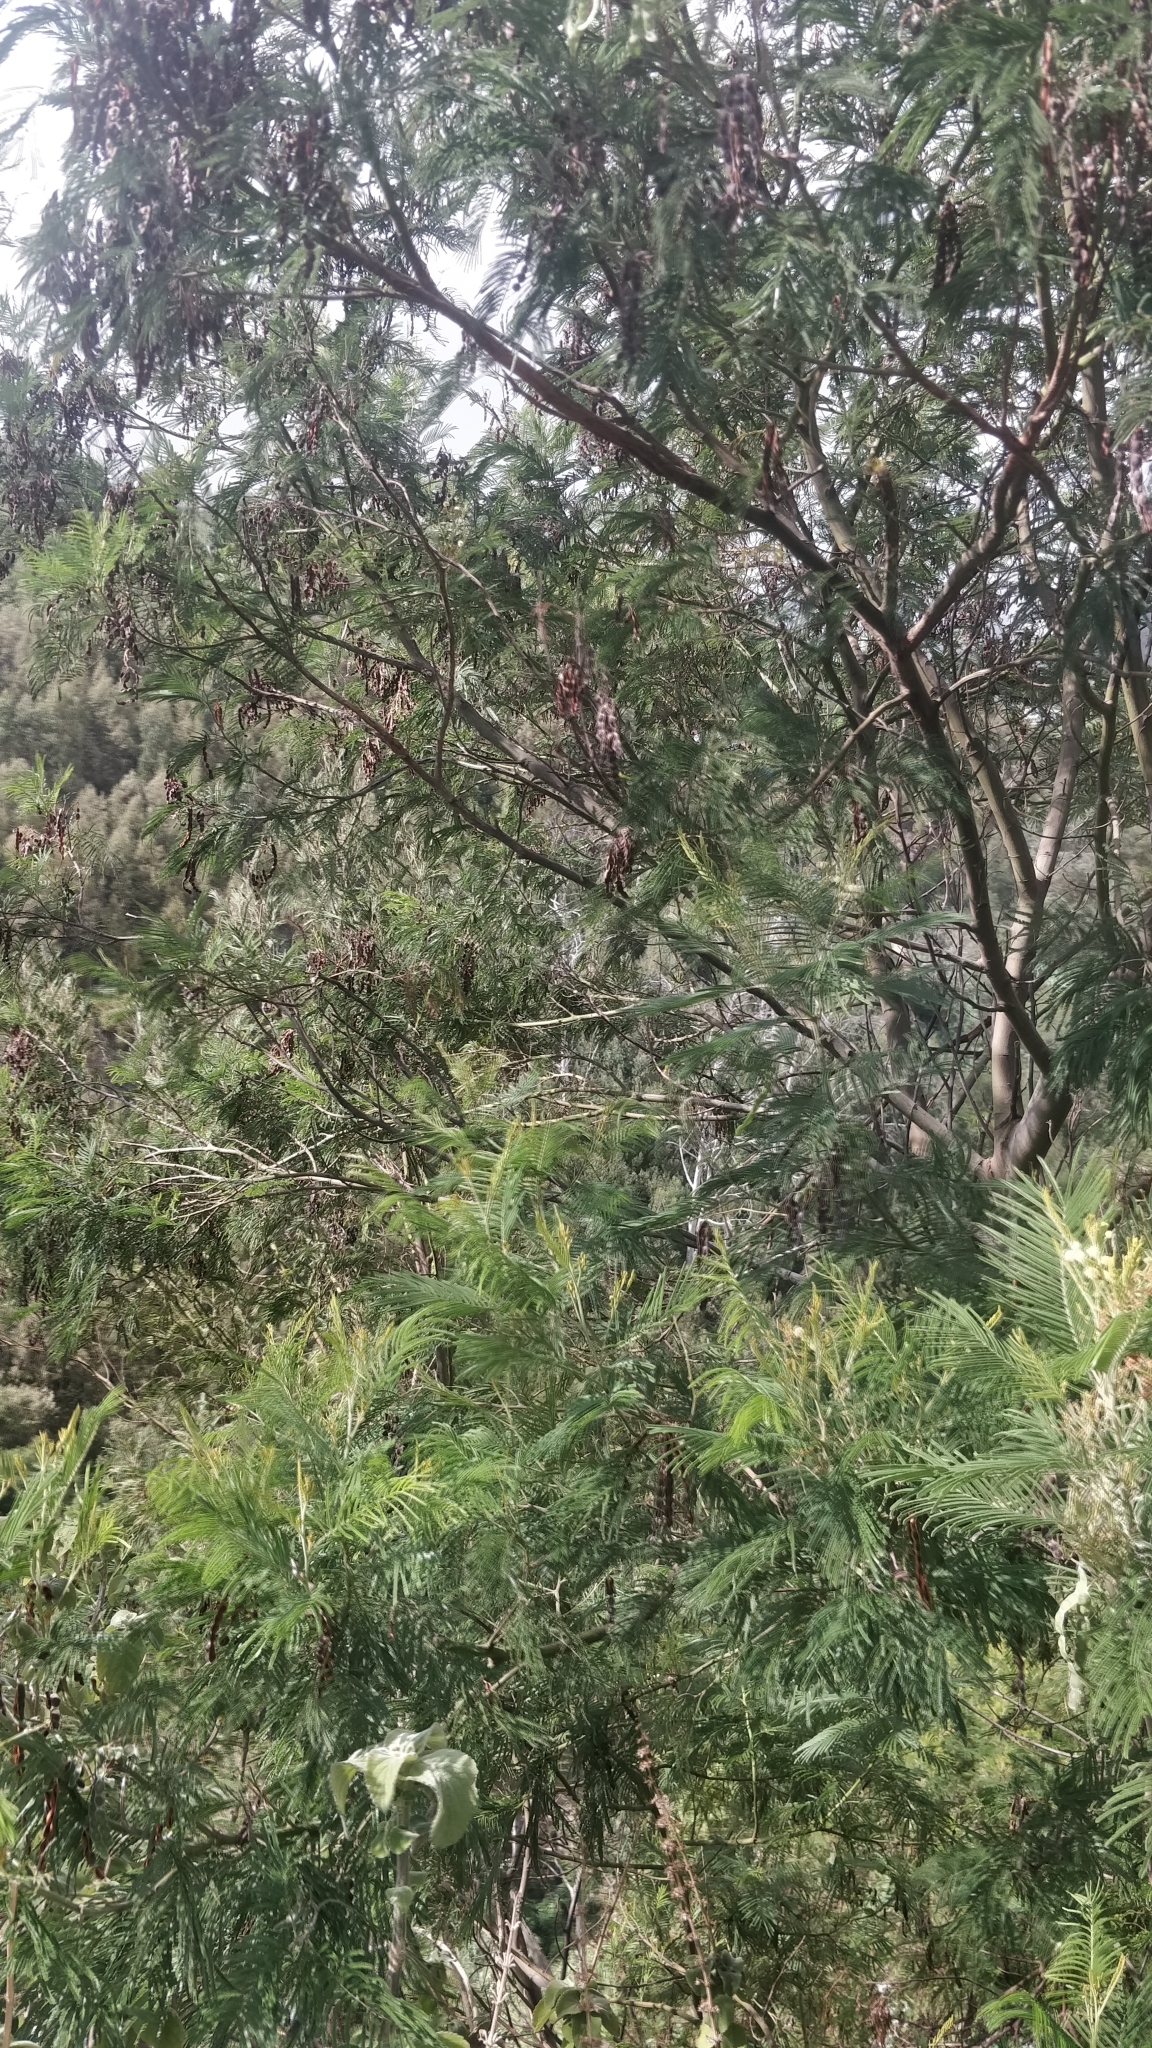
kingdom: Plantae
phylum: Tracheophyta
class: Magnoliopsida
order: Fabales
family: Fabaceae
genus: Acacia
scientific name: Acacia mearnsii
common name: Black wattle
